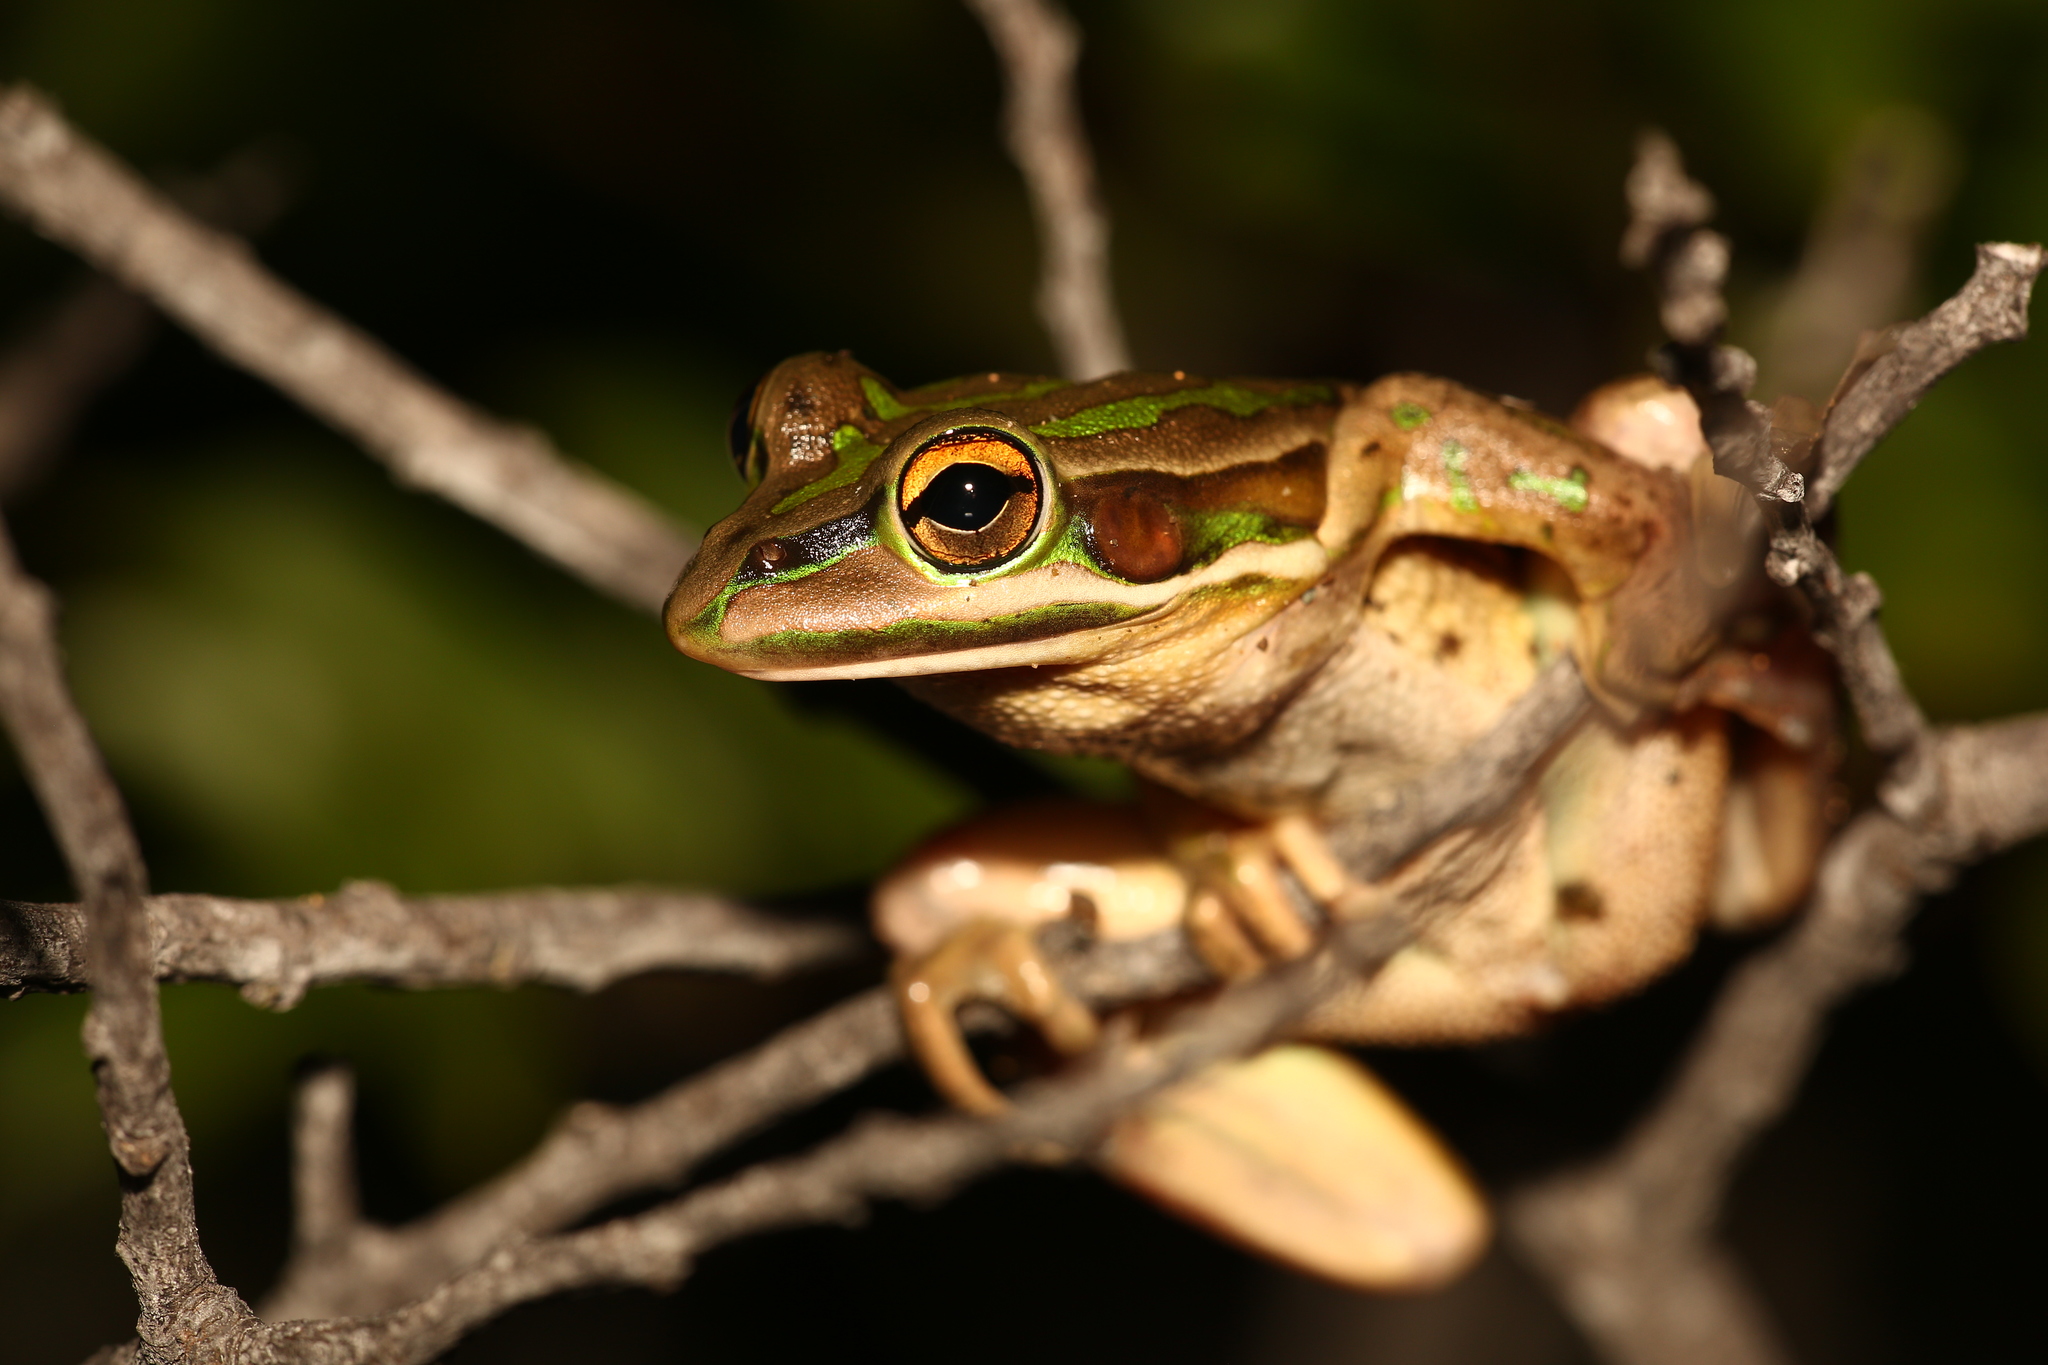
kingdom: Animalia
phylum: Chordata
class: Amphibia
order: Anura
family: Pelodryadidae
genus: Ranoidea
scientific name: Ranoidea aurea
